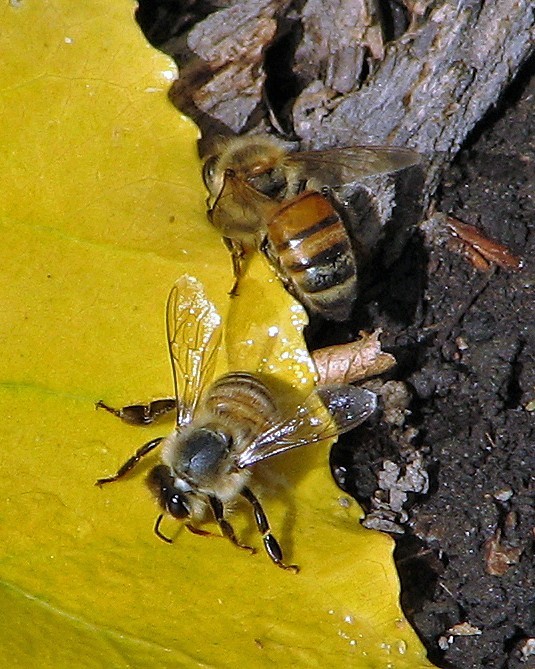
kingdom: Animalia
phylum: Arthropoda
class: Insecta
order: Hymenoptera
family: Apidae
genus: Apis
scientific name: Apis mellifera
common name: Honey bee
